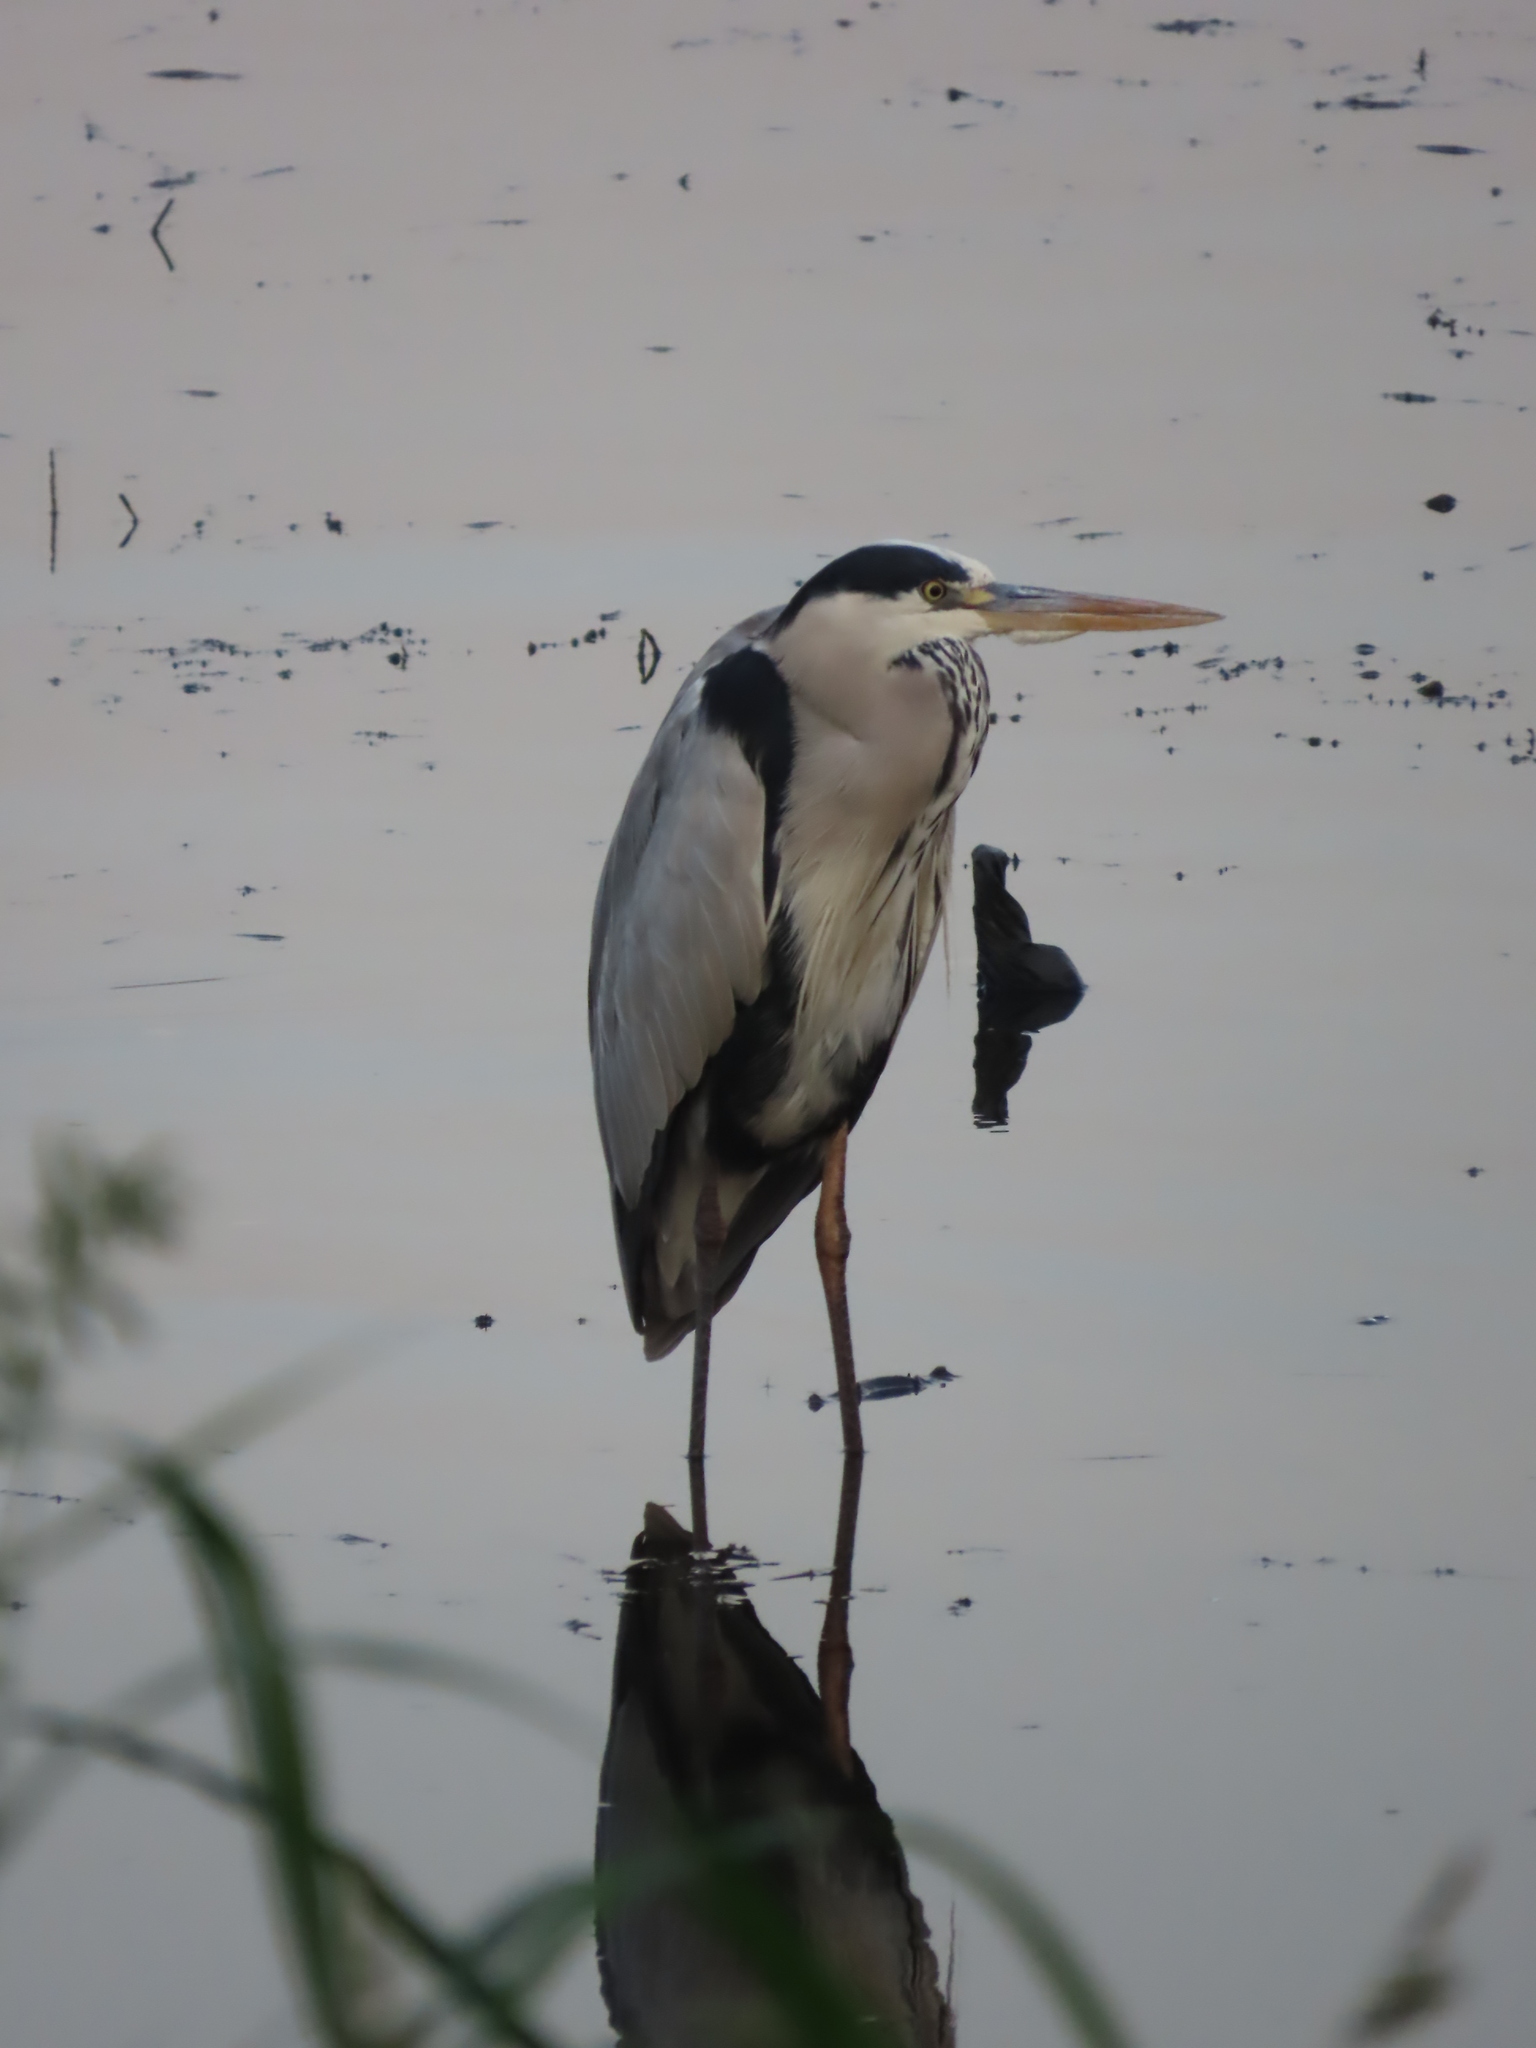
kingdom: Animalia
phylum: Chordata
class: Aves
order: Pelecaniformes
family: Ardeidae
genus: Ardea
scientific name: Ardea cinerea
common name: Grey heron
